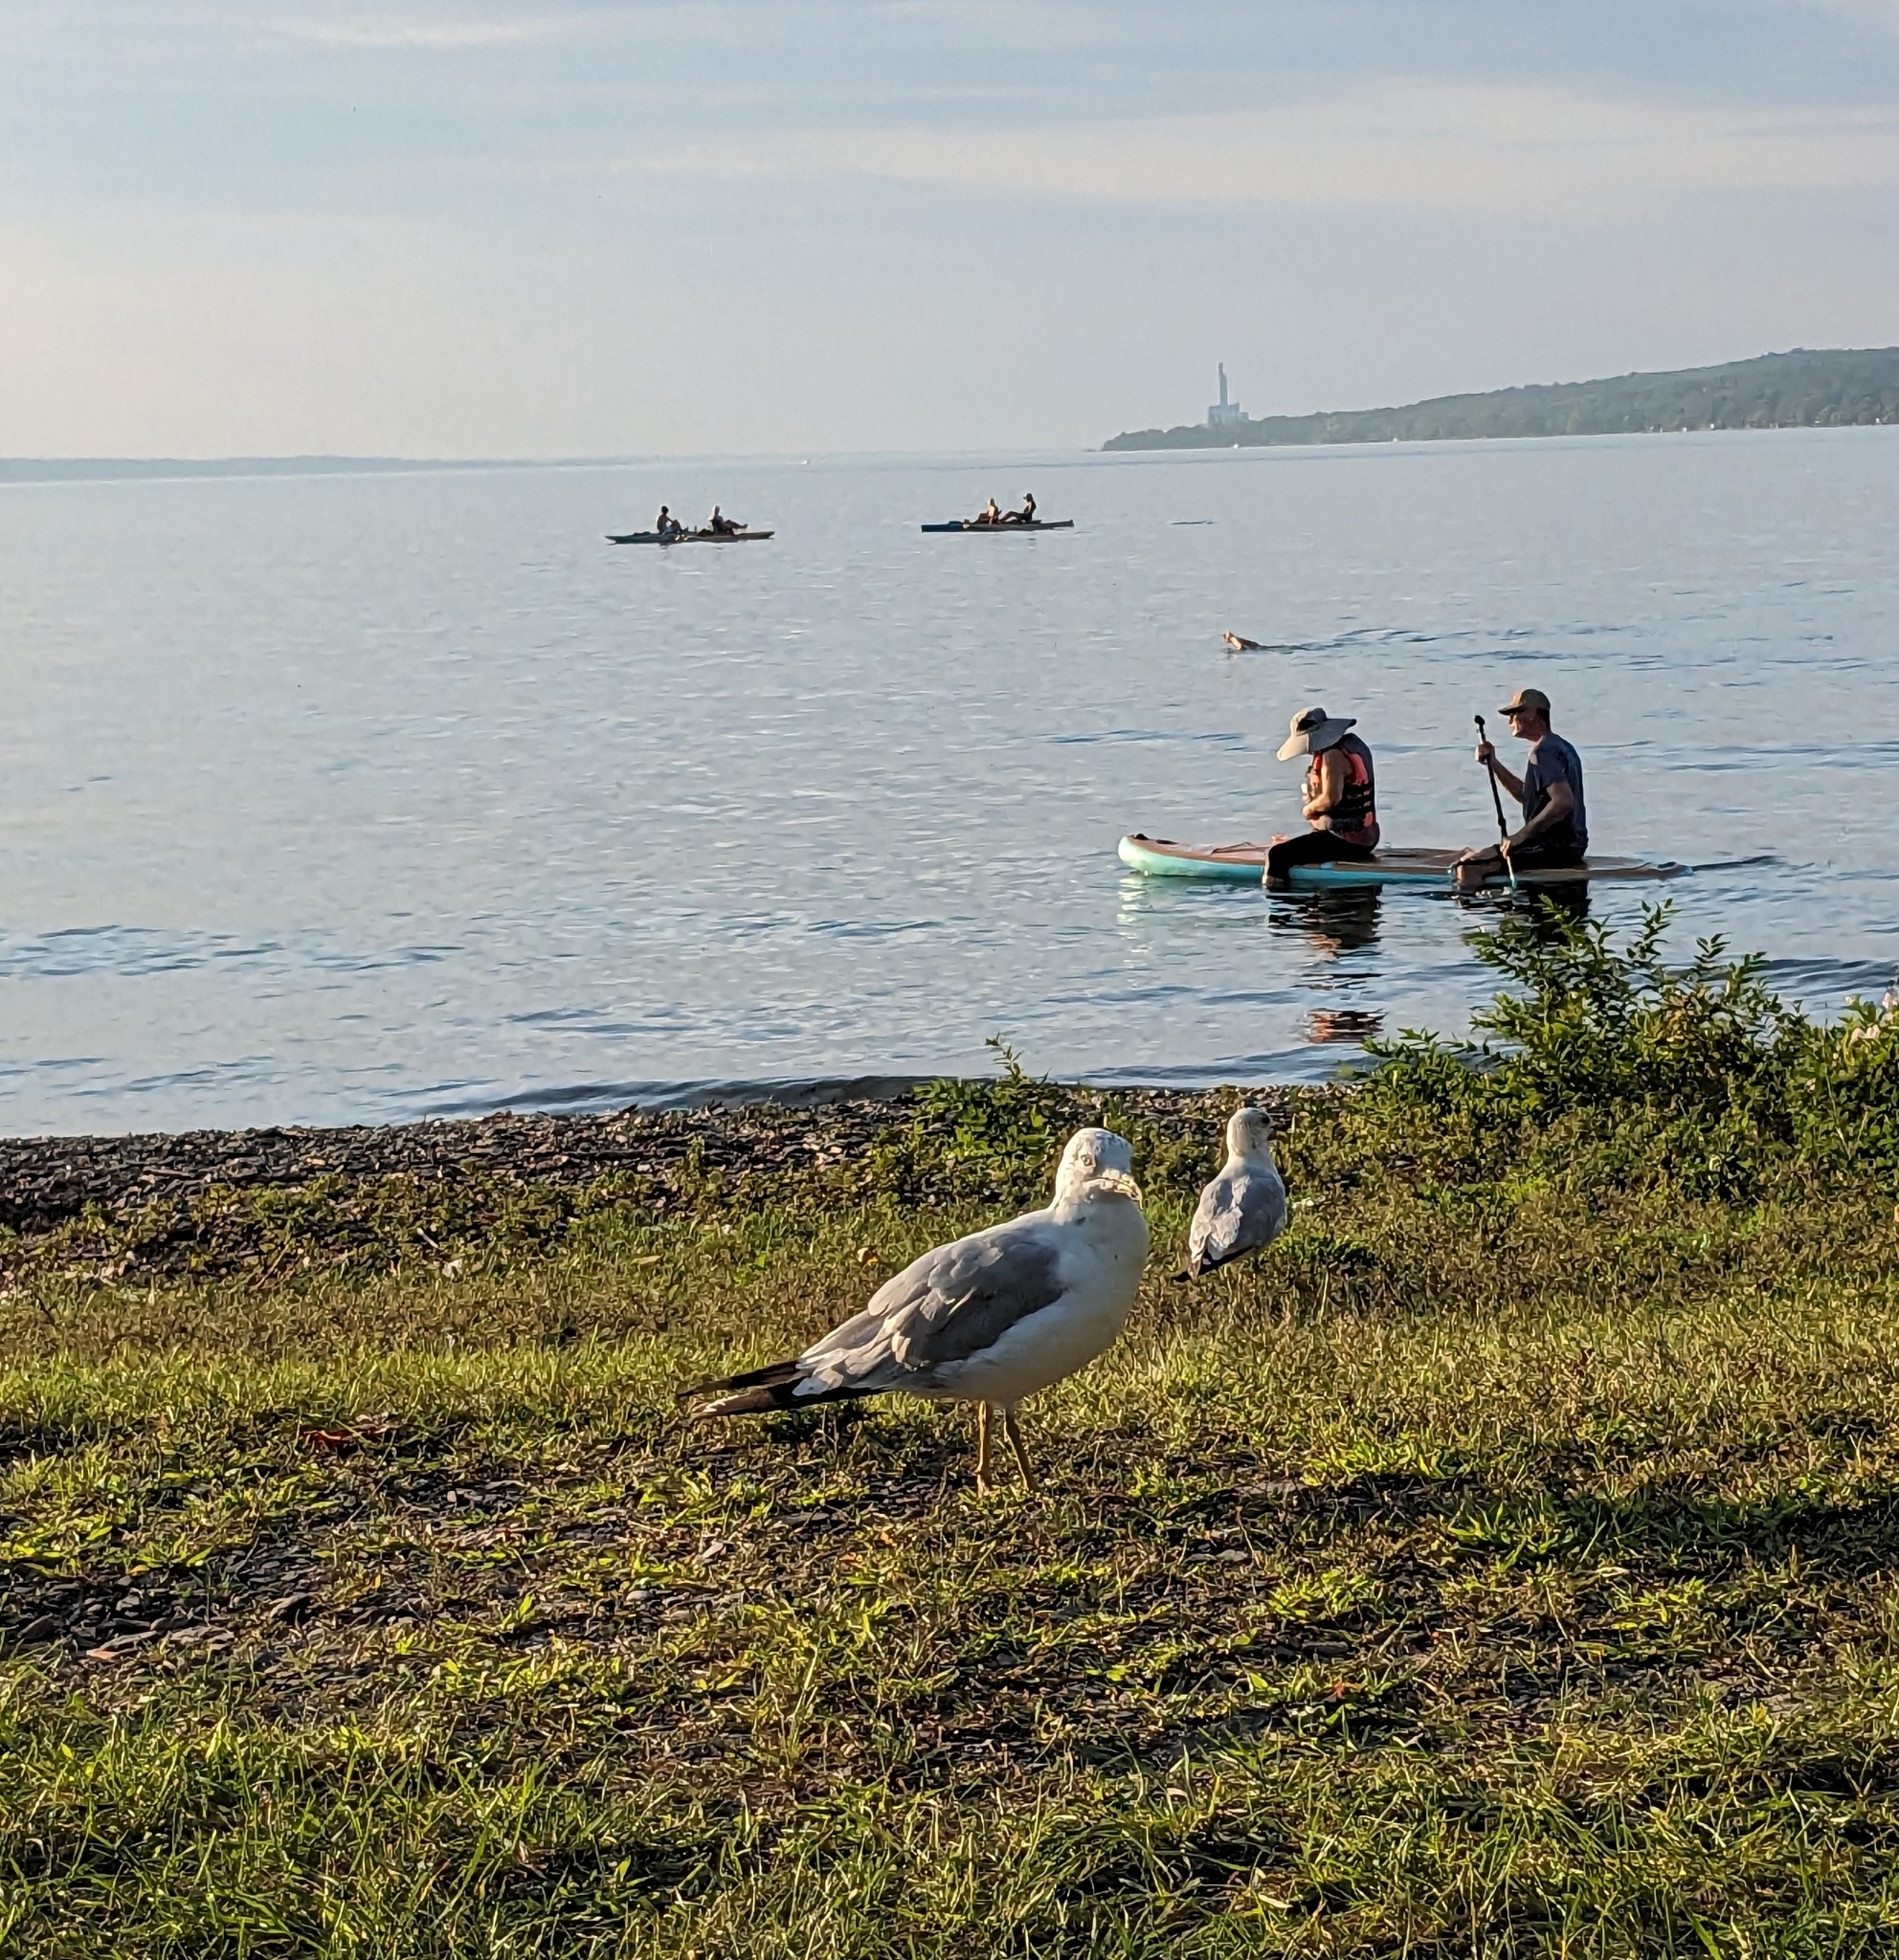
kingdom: Animalia
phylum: Chordata
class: Aves
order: Charadriiformes
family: Laridae
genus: Larus
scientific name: Larus delawarensis
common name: Ring-billed gull
